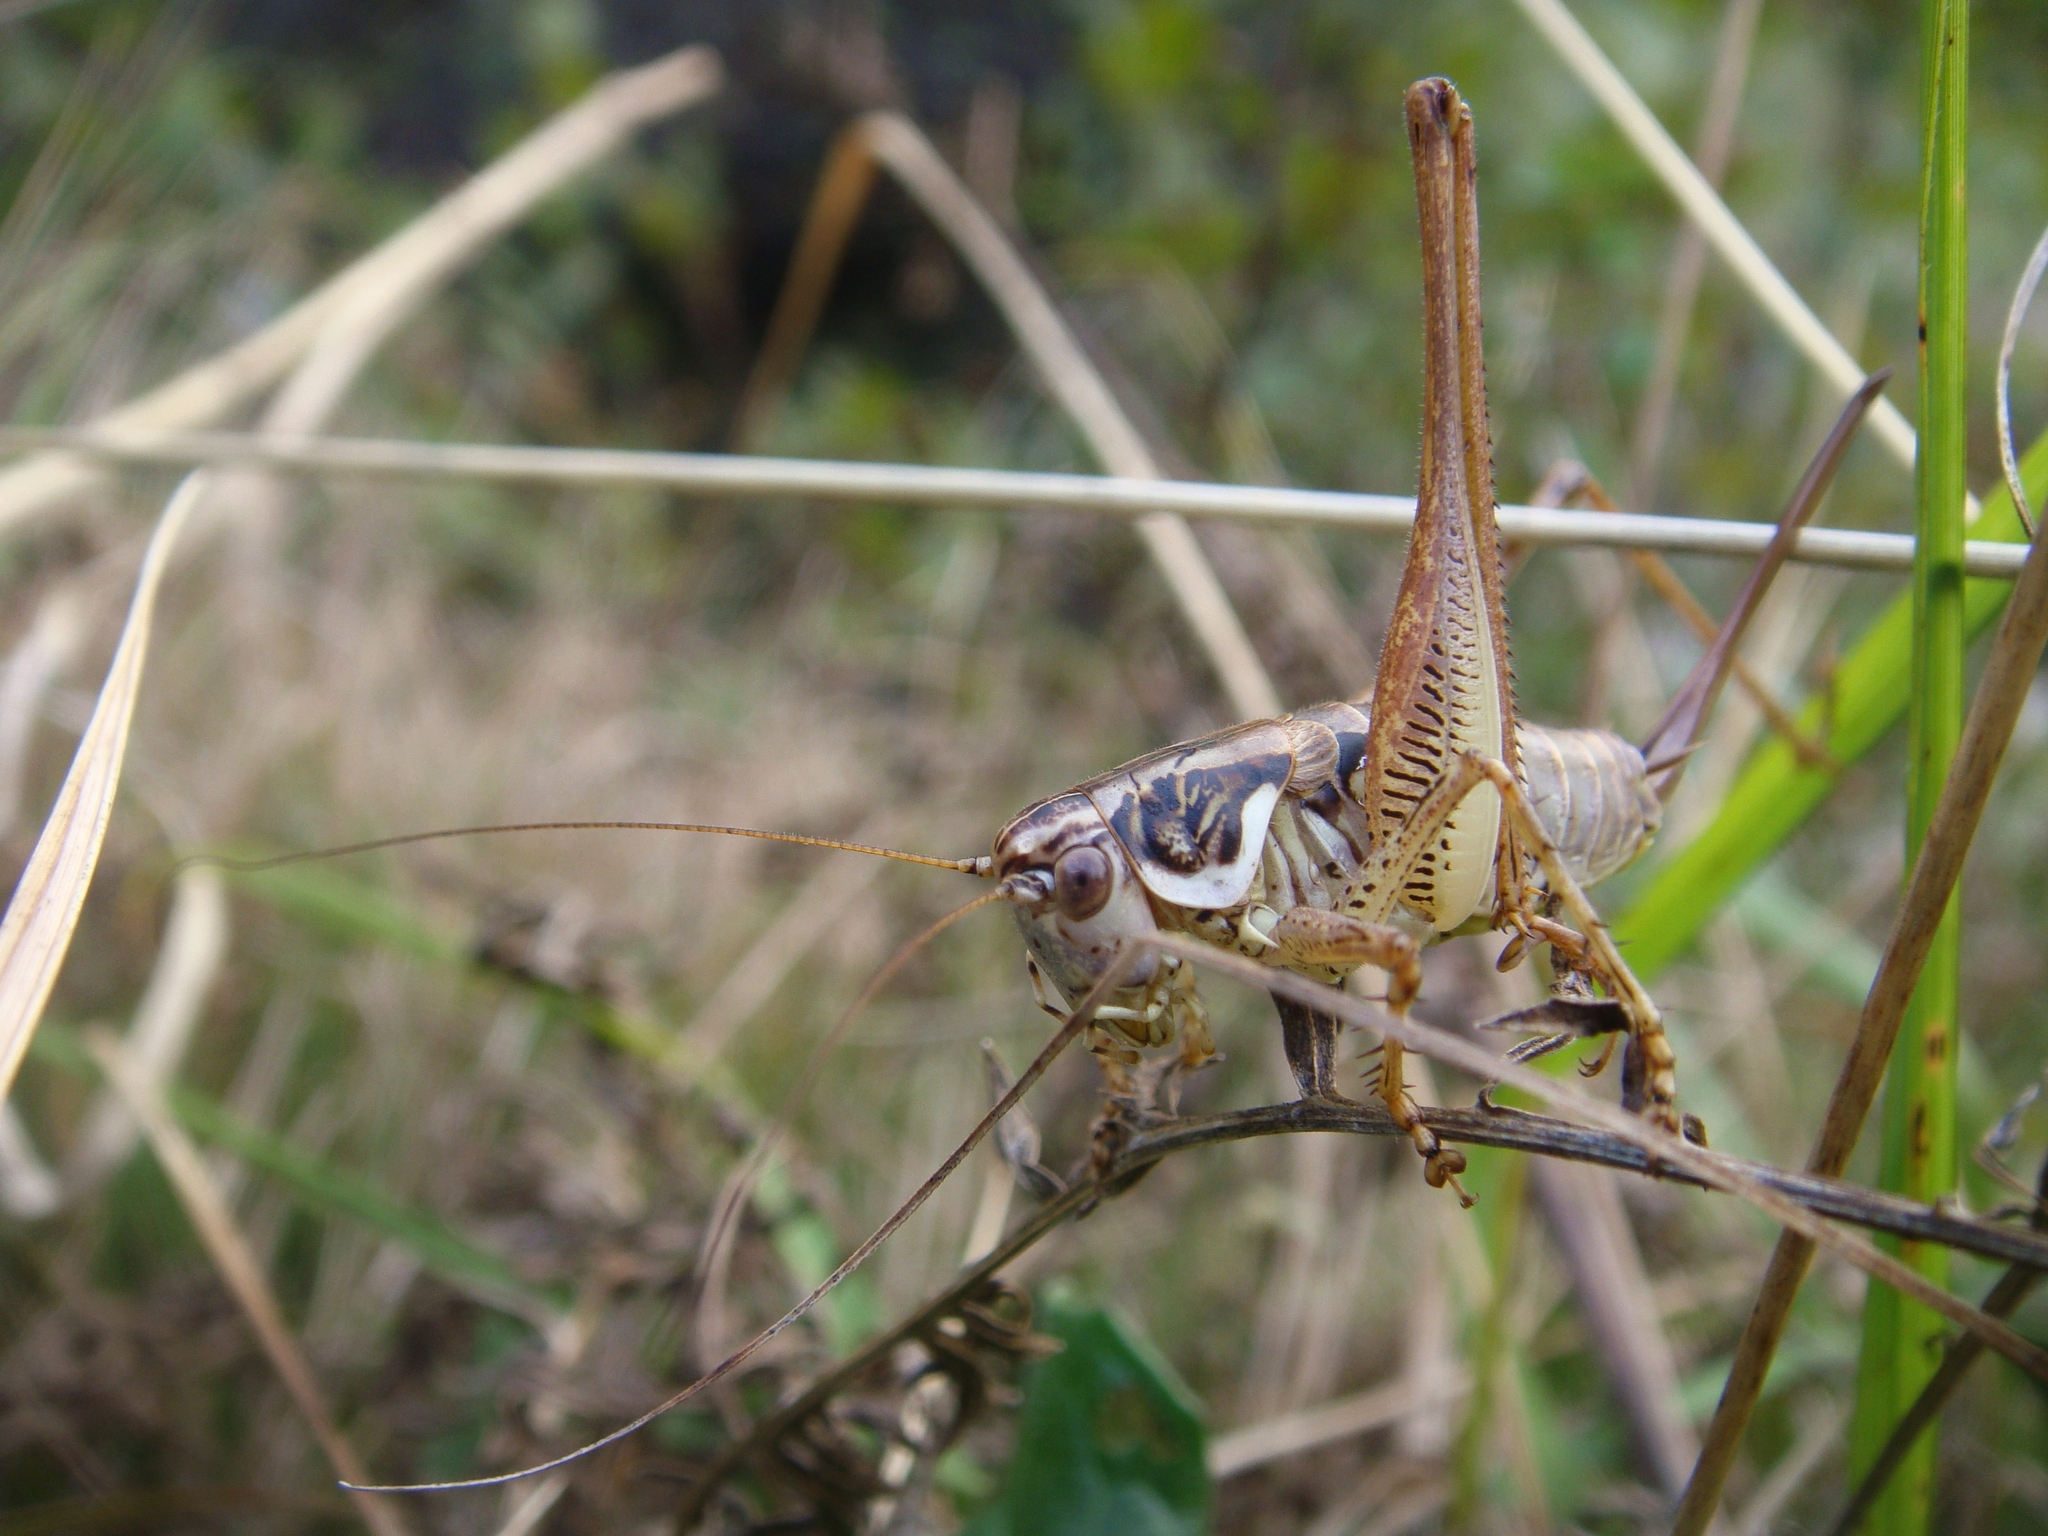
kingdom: Animalia
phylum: Arthropoda
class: Insecta
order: Orthoptera
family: Tettigoniidae
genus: Pachytrachis
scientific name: Pachytrachis striolatus
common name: Striated bush-cricket
